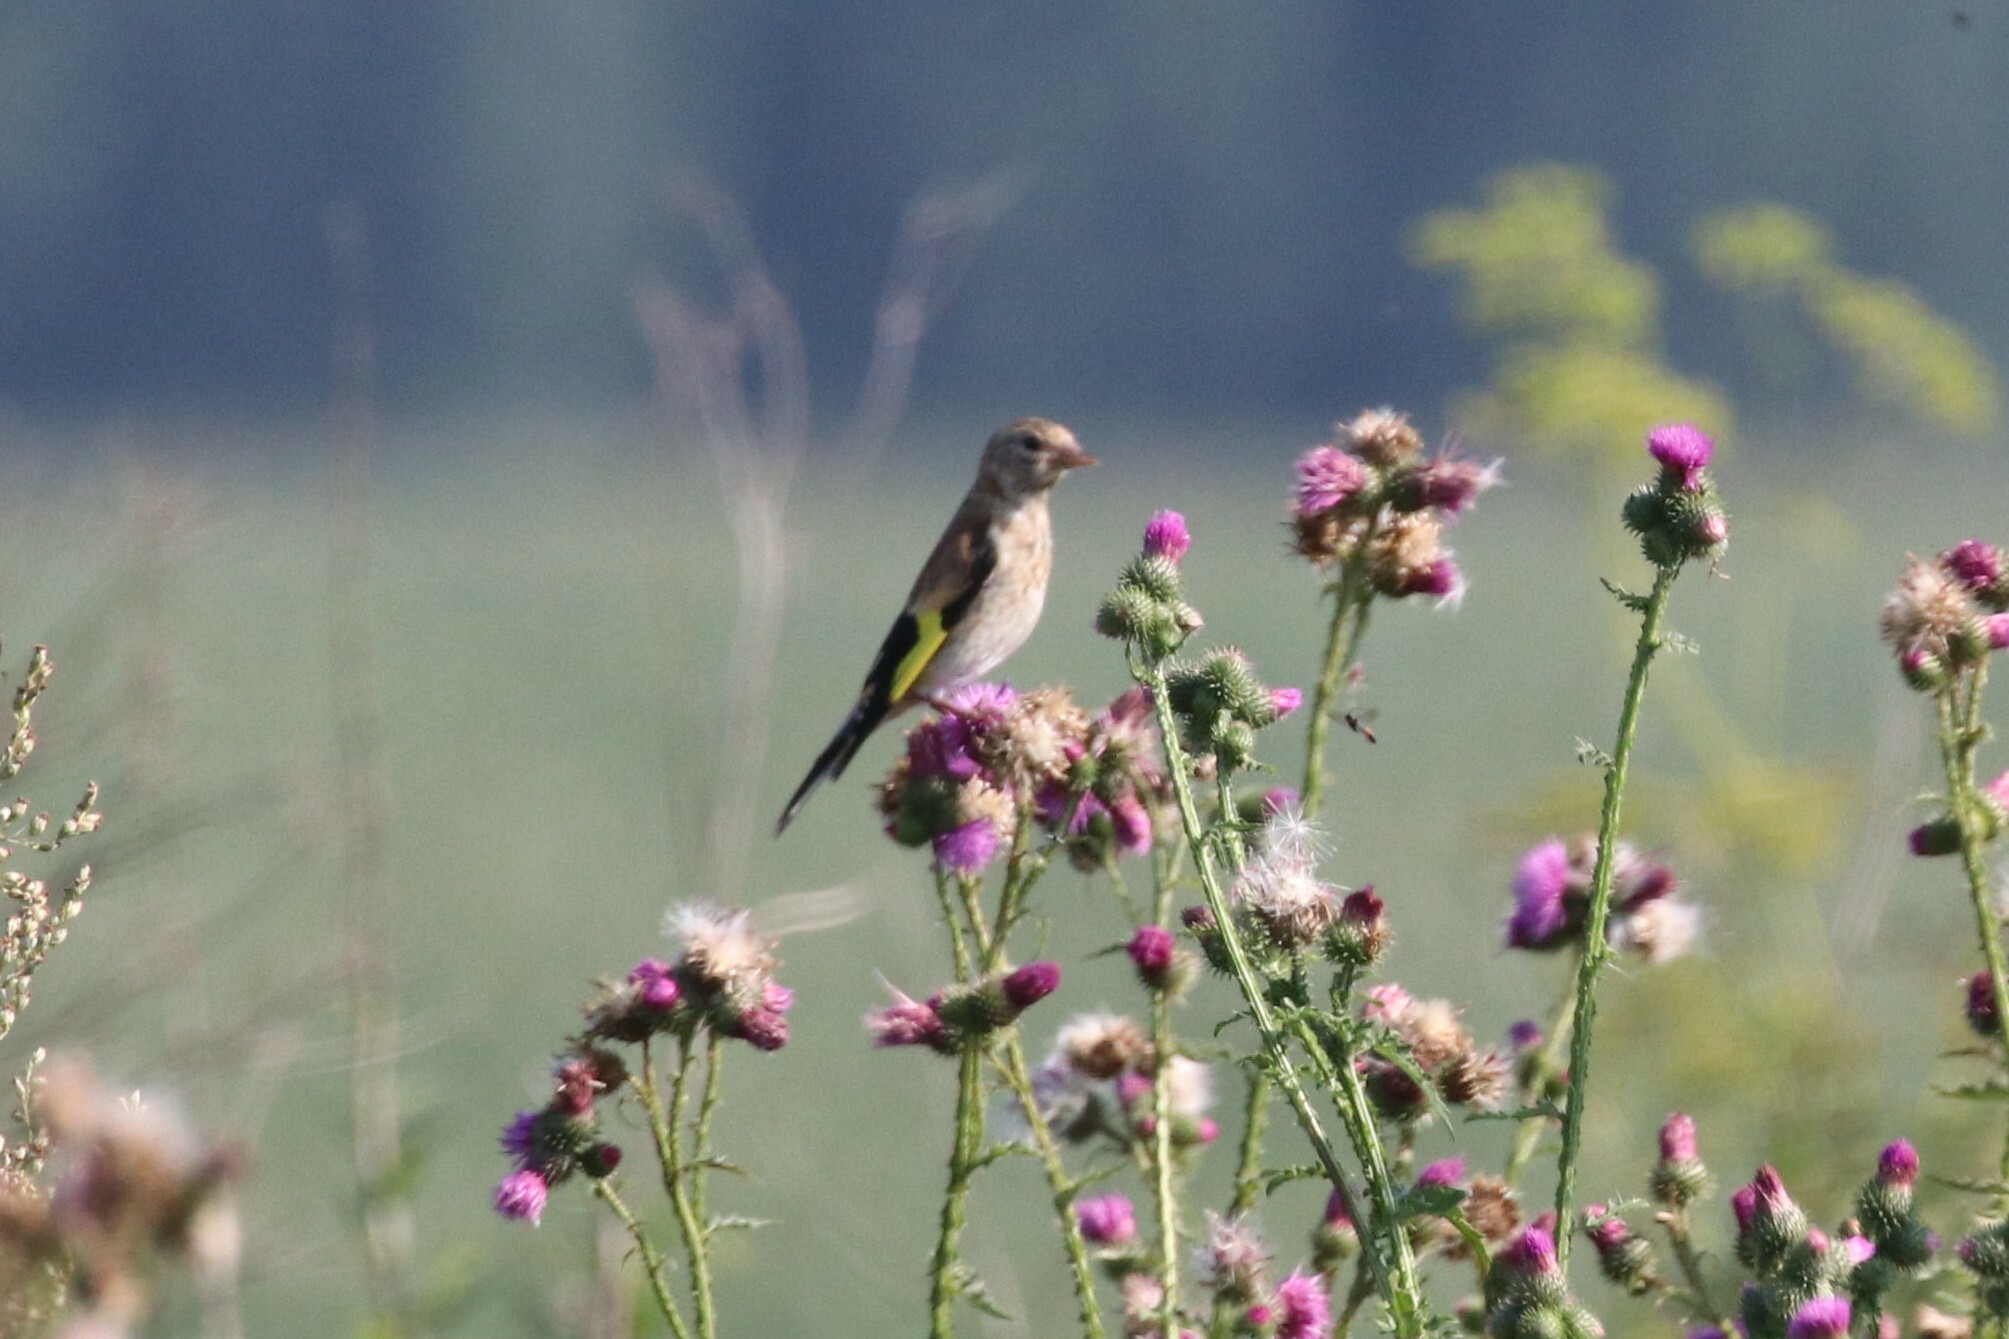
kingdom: Animalia
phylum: Chordata
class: Aves
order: Passeriformes
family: Fringillidae
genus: Carduelis
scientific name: Carduelis carduelis
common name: European goldfinch
